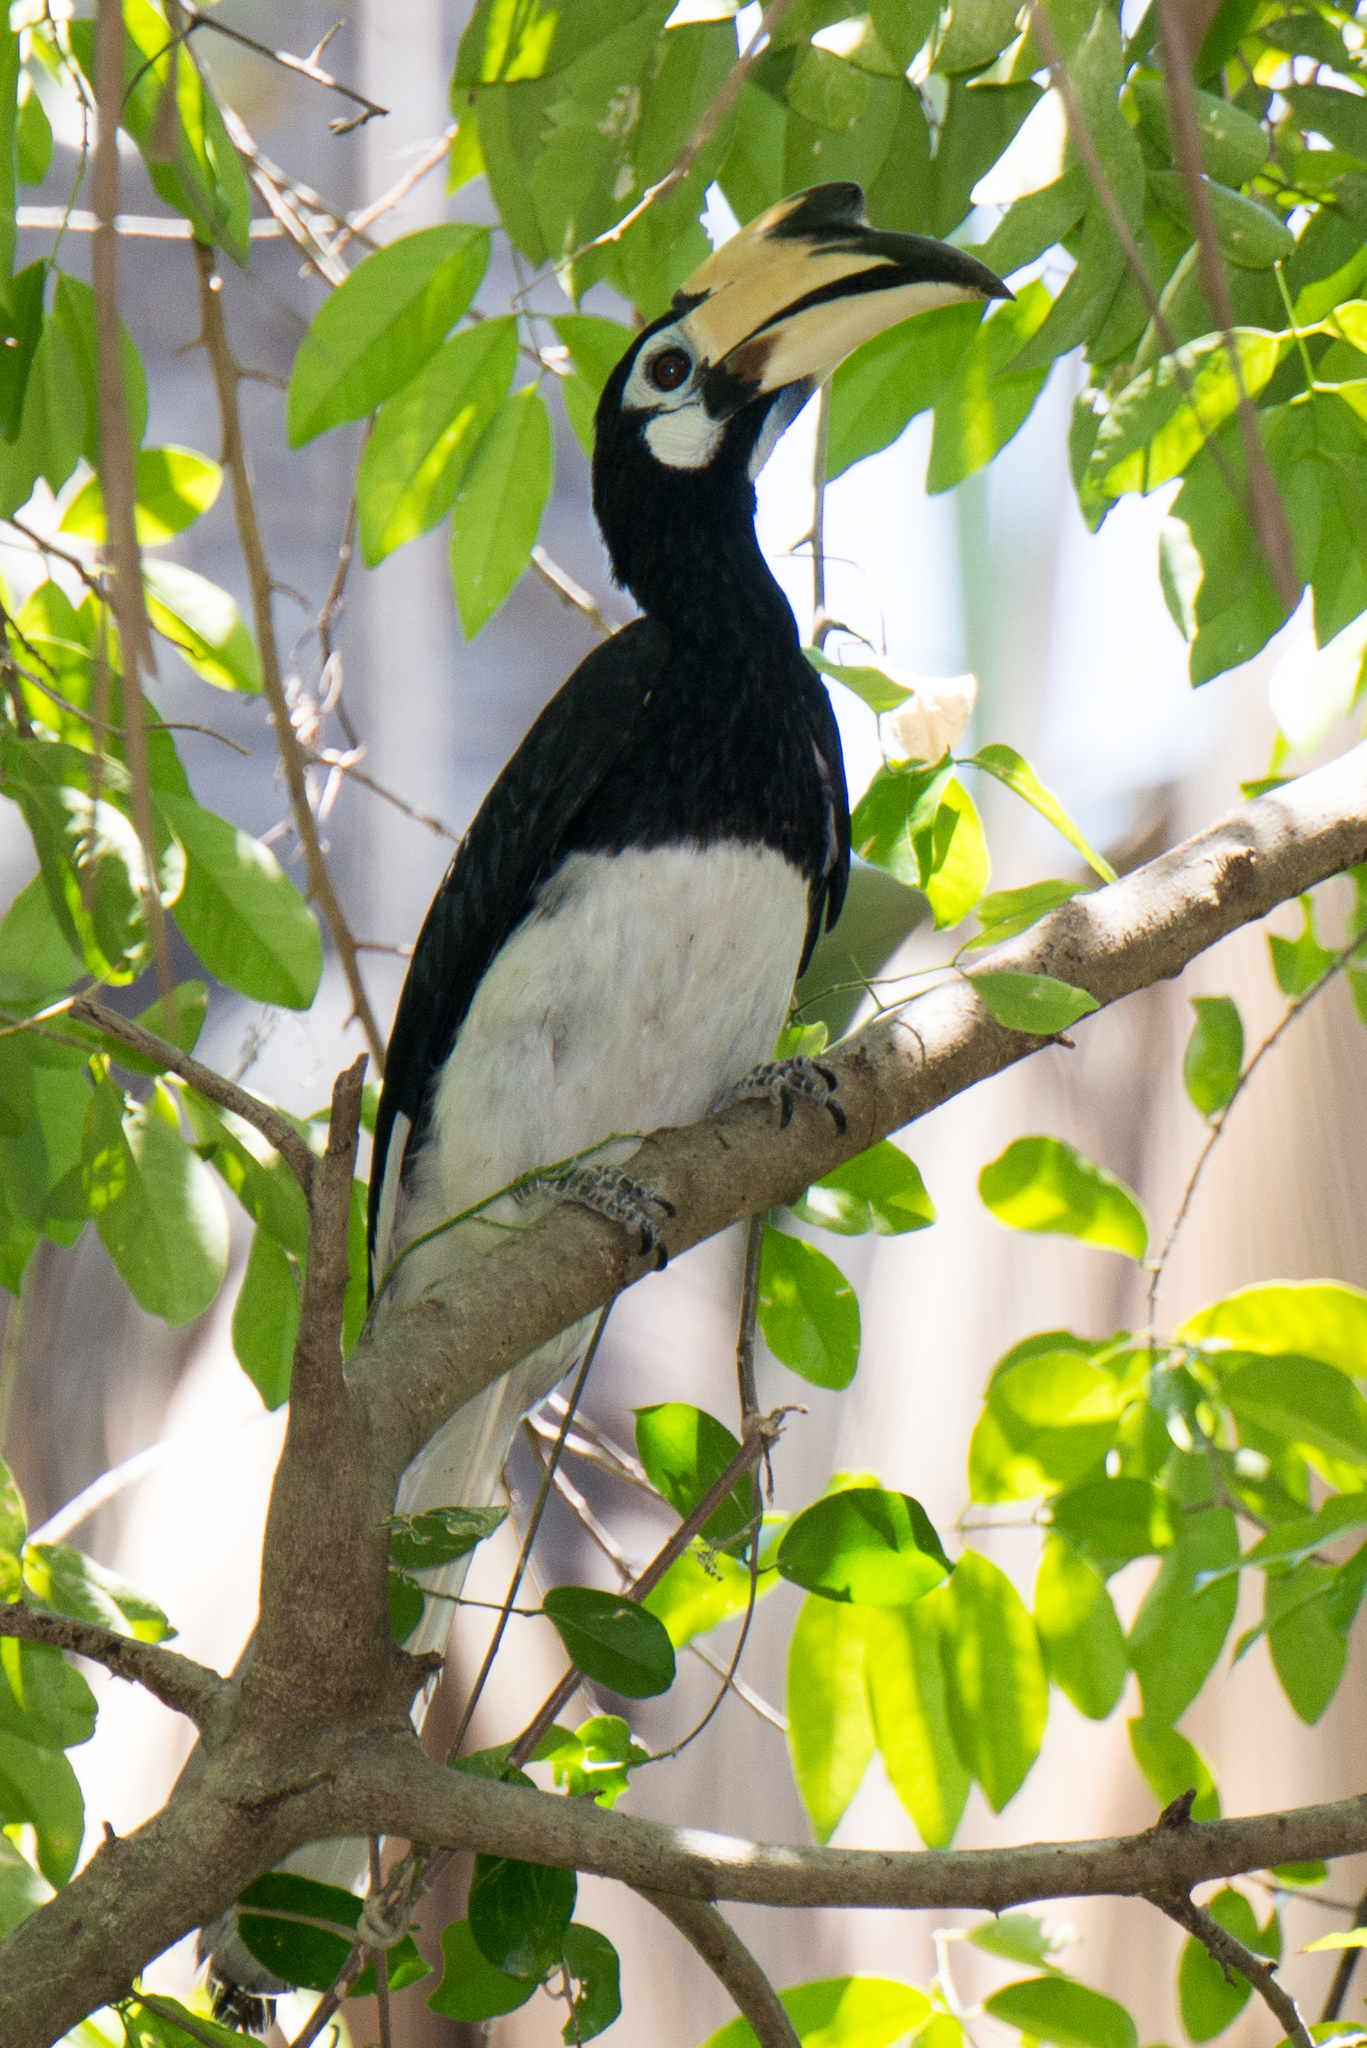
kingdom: Animalia
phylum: Chordata
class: Aves
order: Bucerotiformes
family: Bucerotidae
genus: Anthracoceros
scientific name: Anthracoceros albirostris
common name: Oriental pied-hornbill
